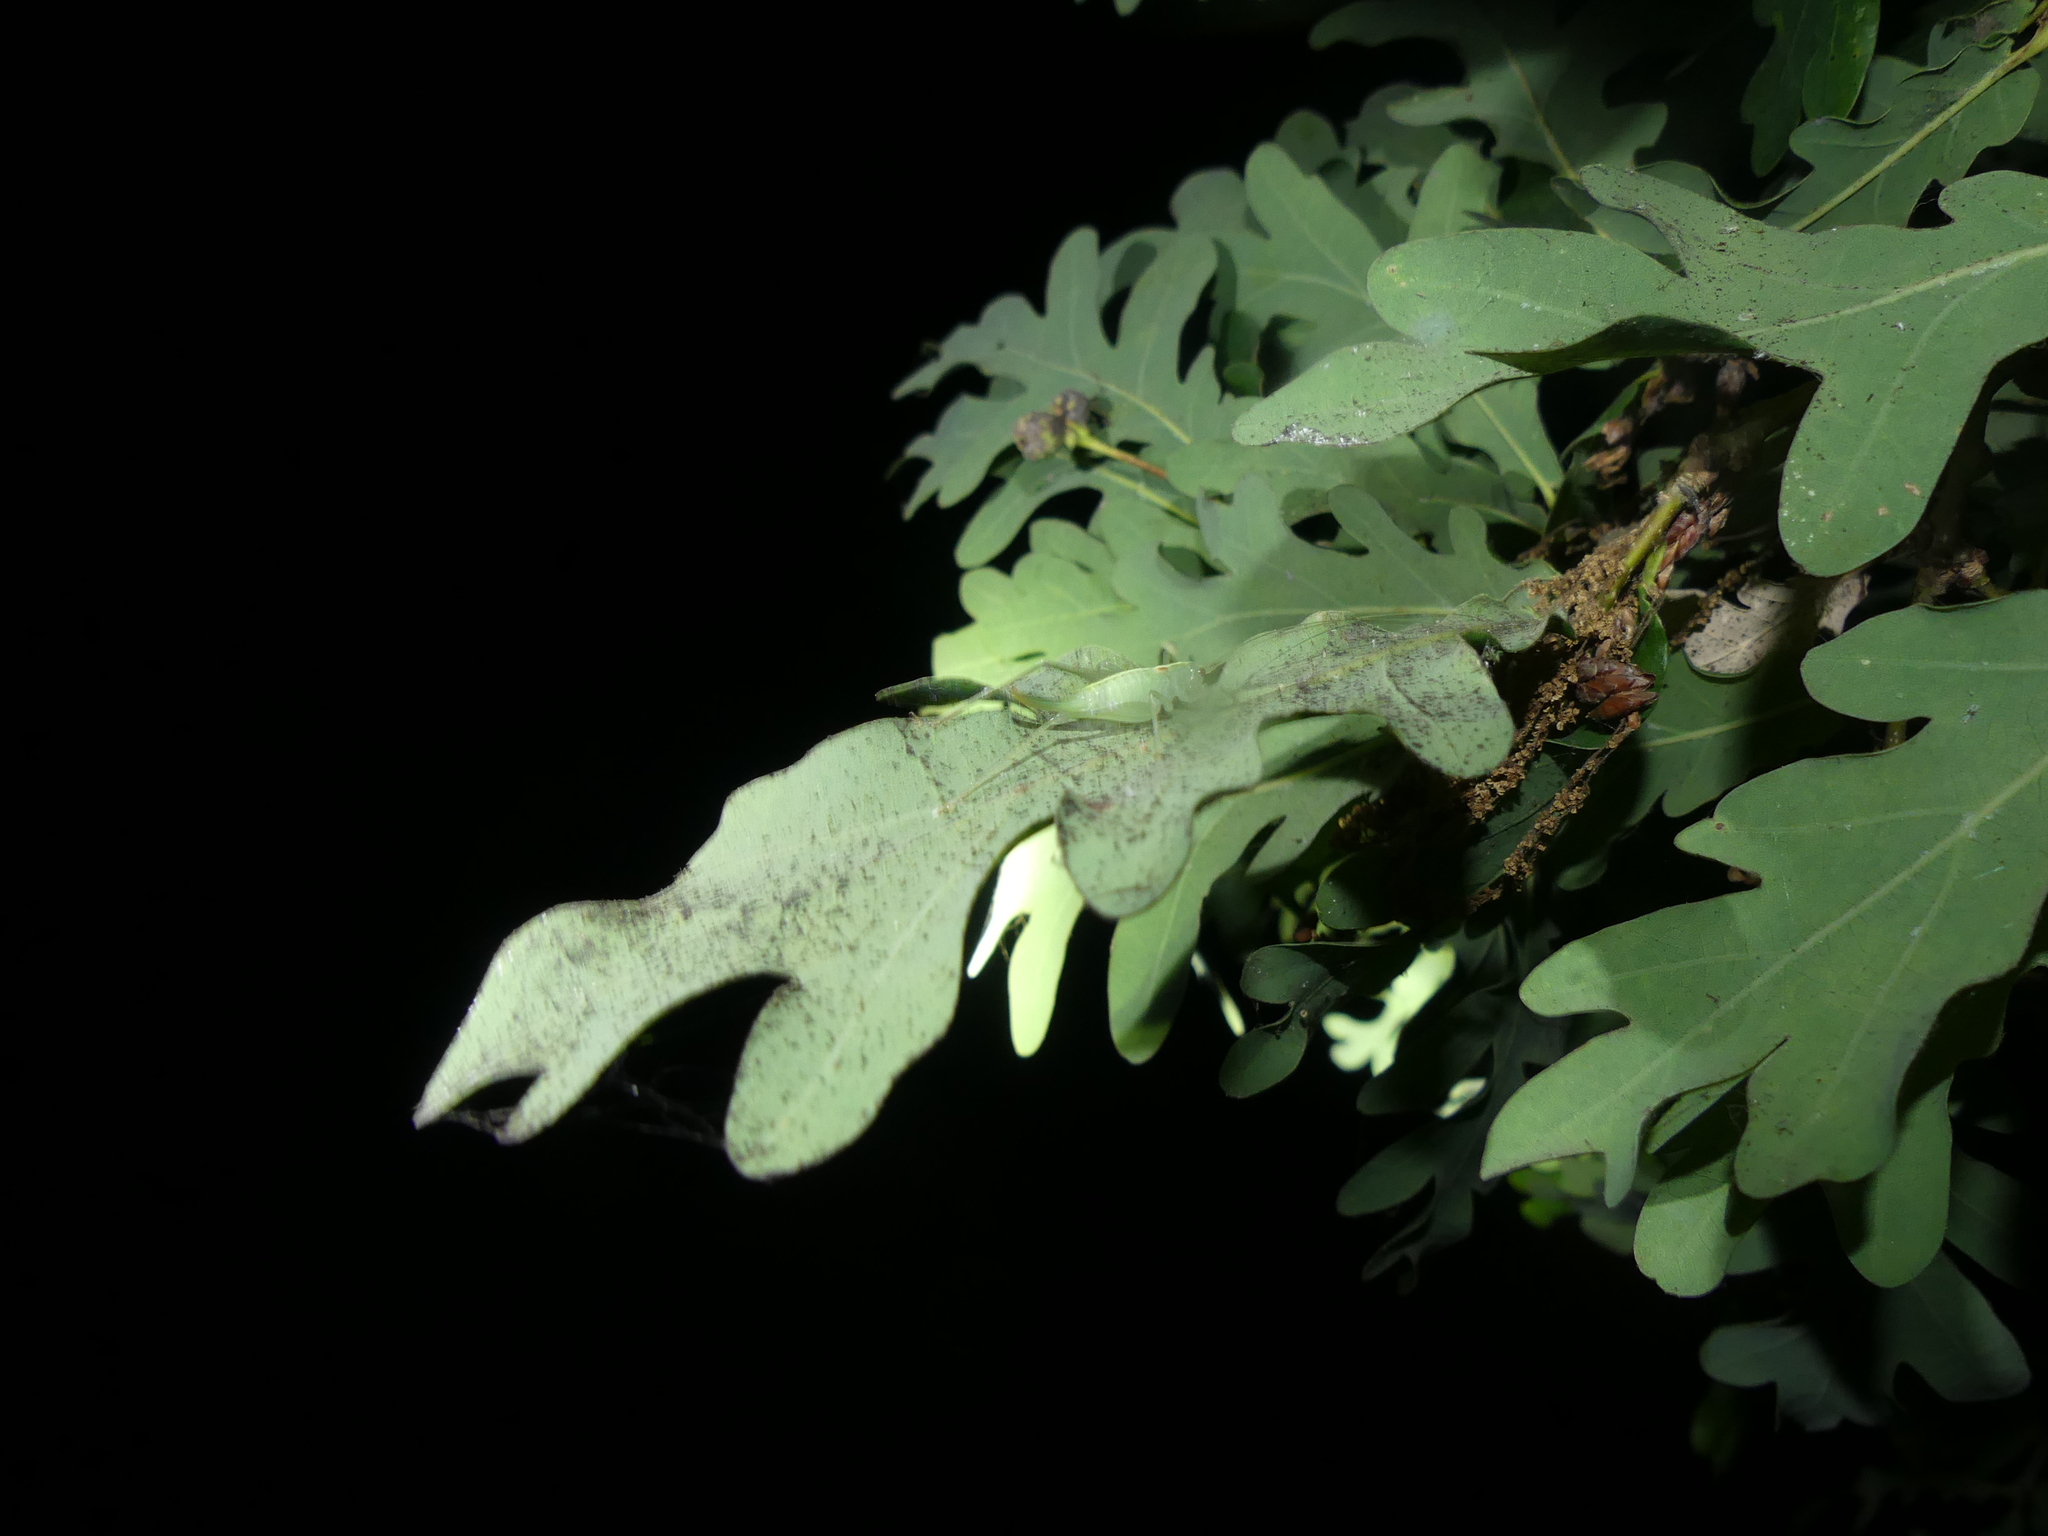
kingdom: Animalia
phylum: Arthropoda
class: Insecta
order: Orthoptera
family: Tettigoniidae
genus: Meconema
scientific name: Meconema meridionale
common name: Southern oak bush-cricket
